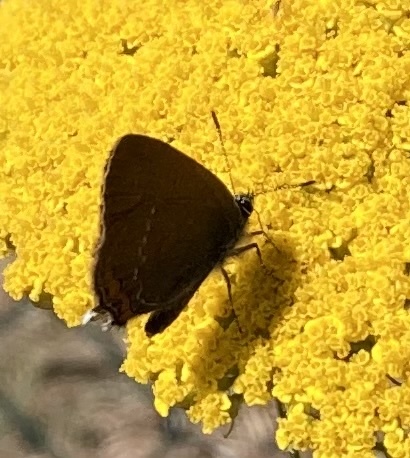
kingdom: Animalia
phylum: Arthropoda
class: Insecta
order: Lepidoptera
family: Lycaenidae
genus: Strymon
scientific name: Strymon acaciae
